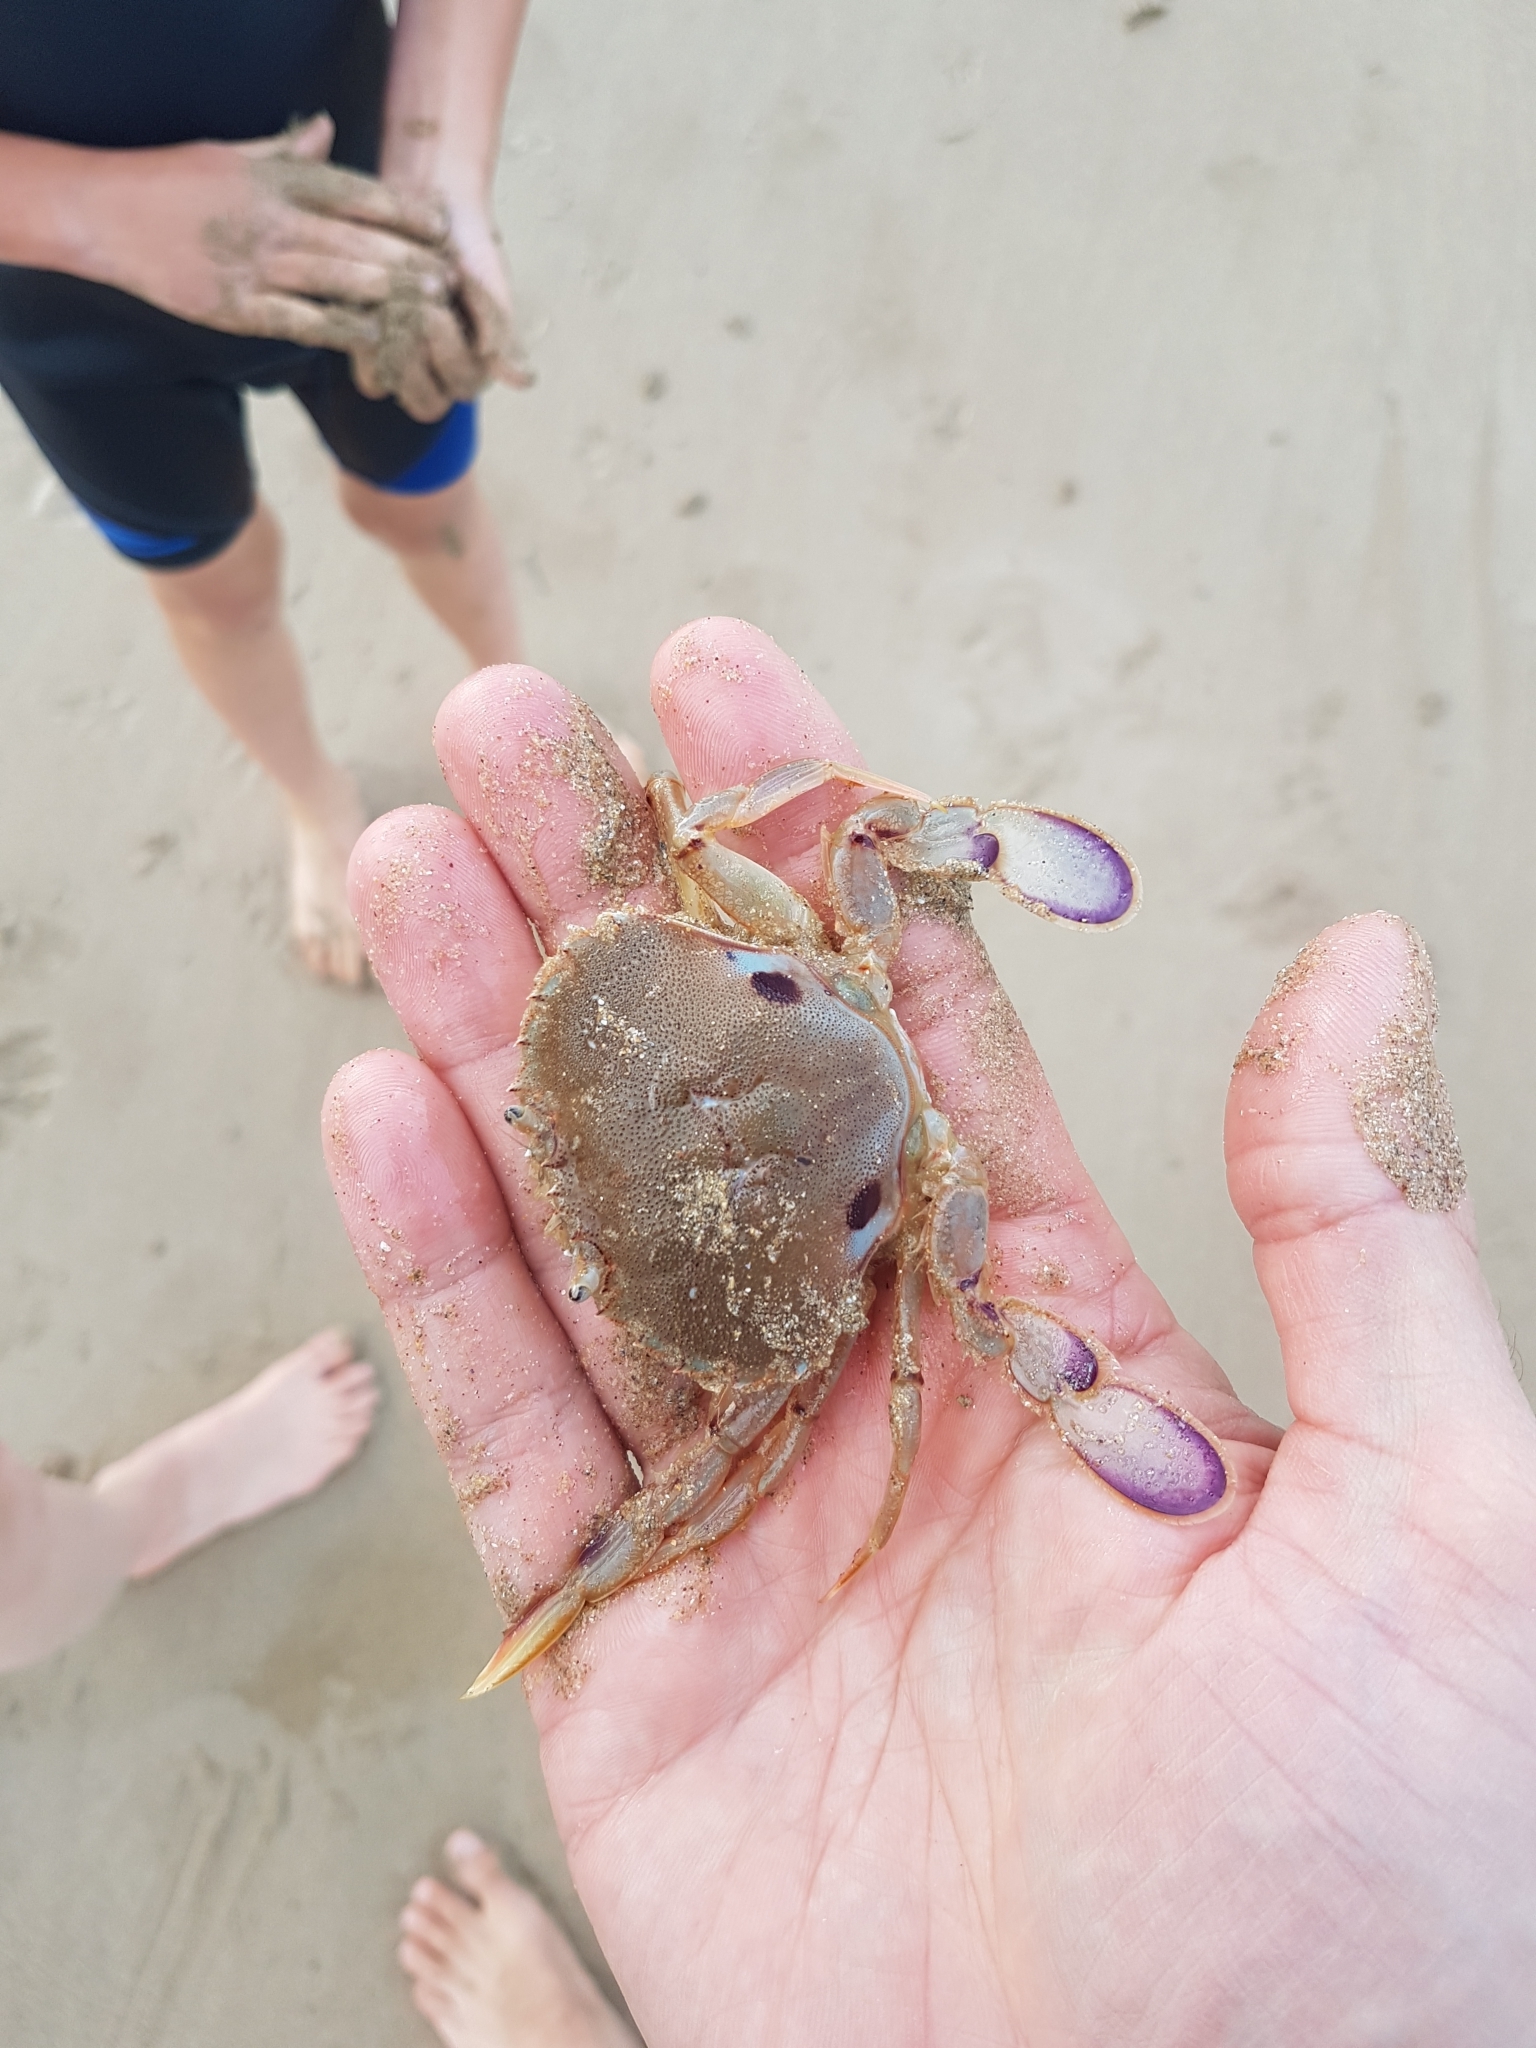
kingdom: Animalia
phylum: Arthropoda
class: Malacostraca
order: Decapoda
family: Ovalipidae
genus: Ovalipes
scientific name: Ovalipes australiensis
